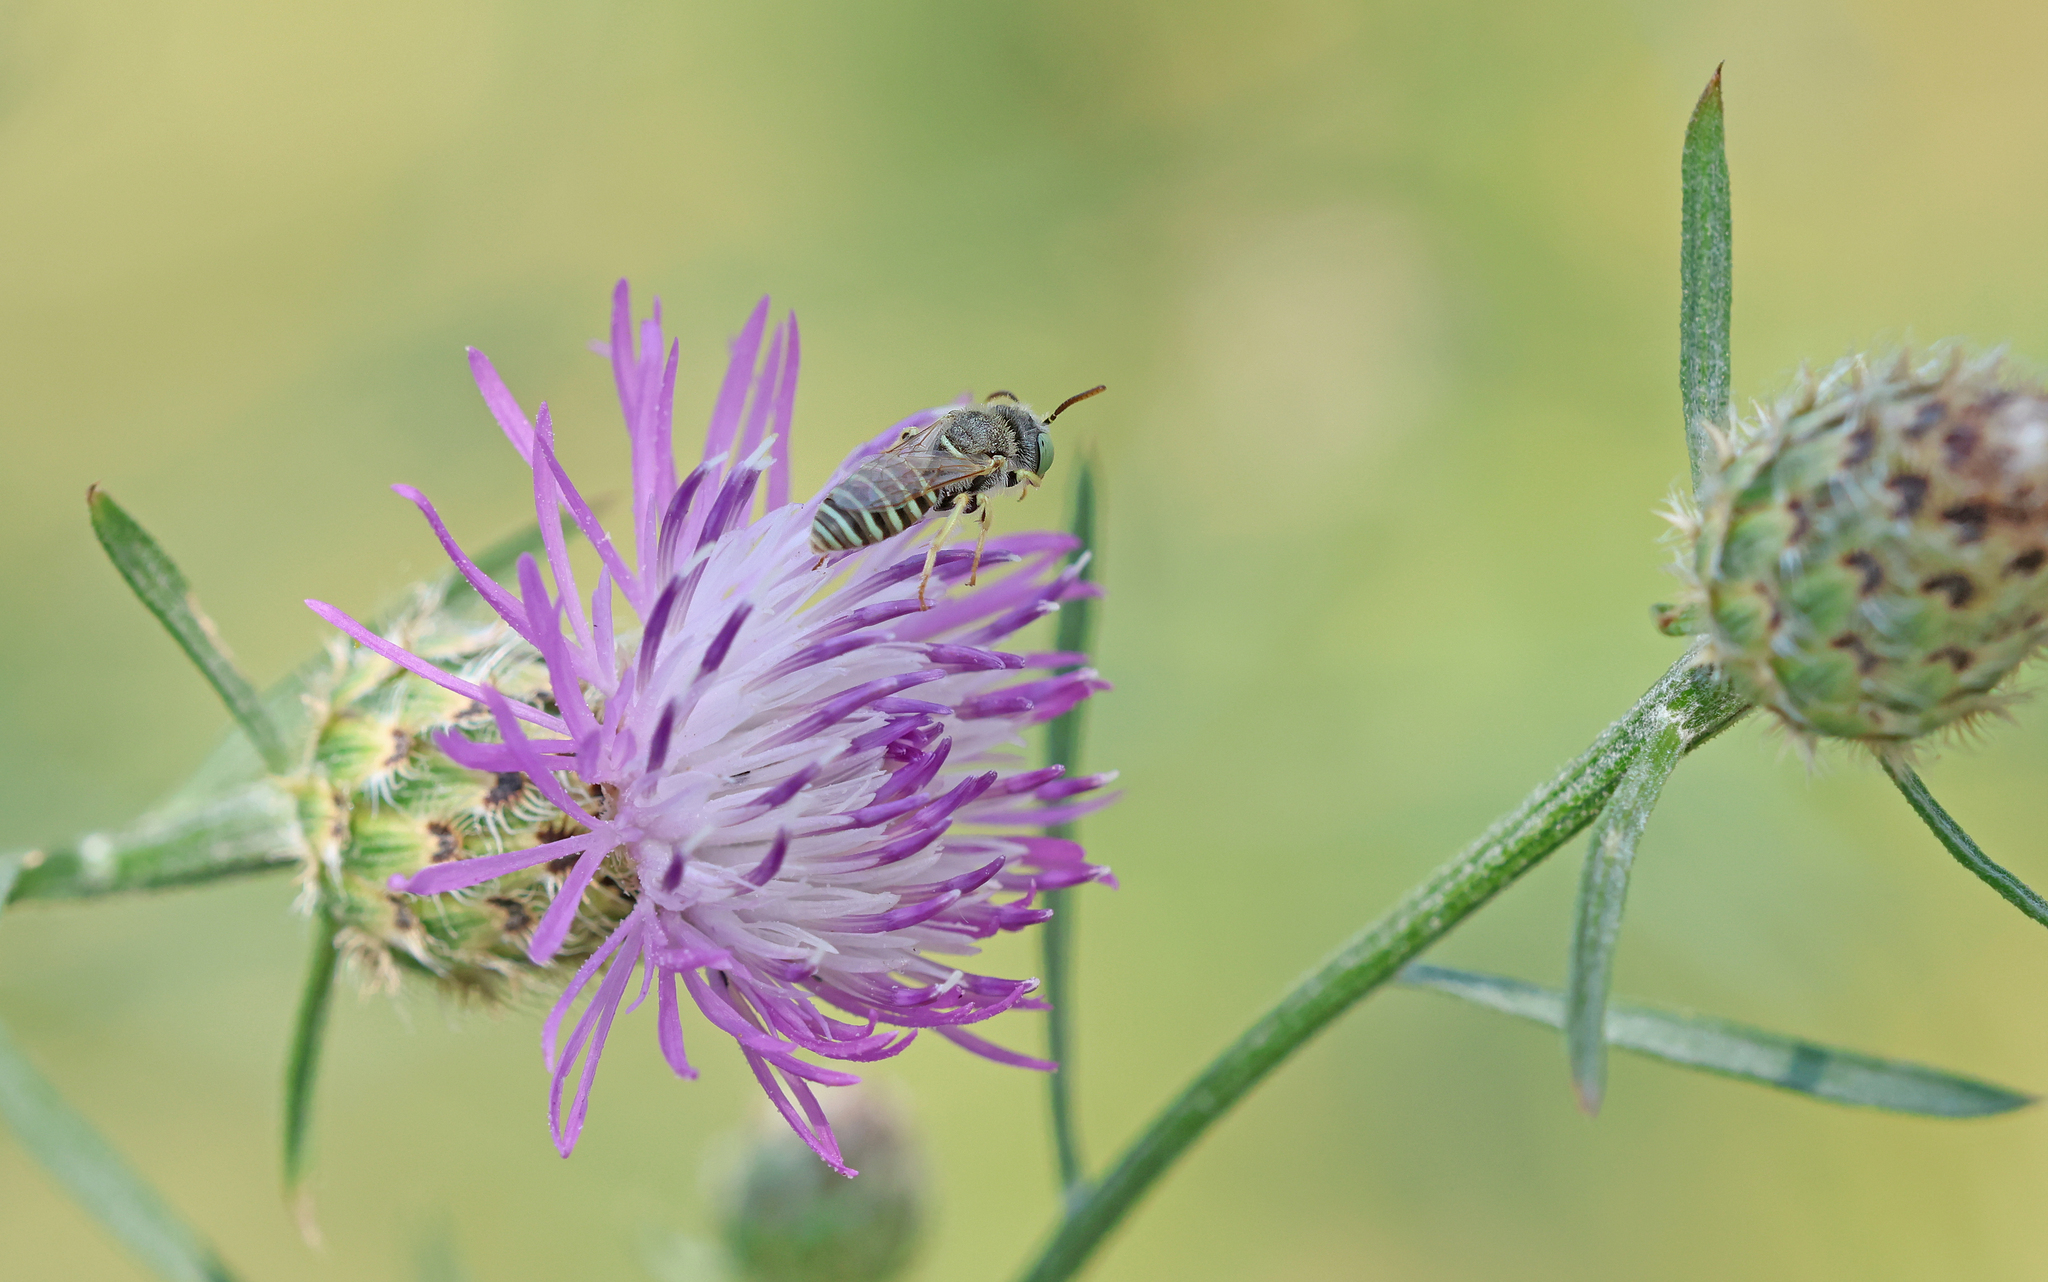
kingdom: Animalia
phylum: Arthropoda
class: Insecta
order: Hymenoptera
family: Andrenidae
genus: Camptopoeum
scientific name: Camptopoeum frontale
